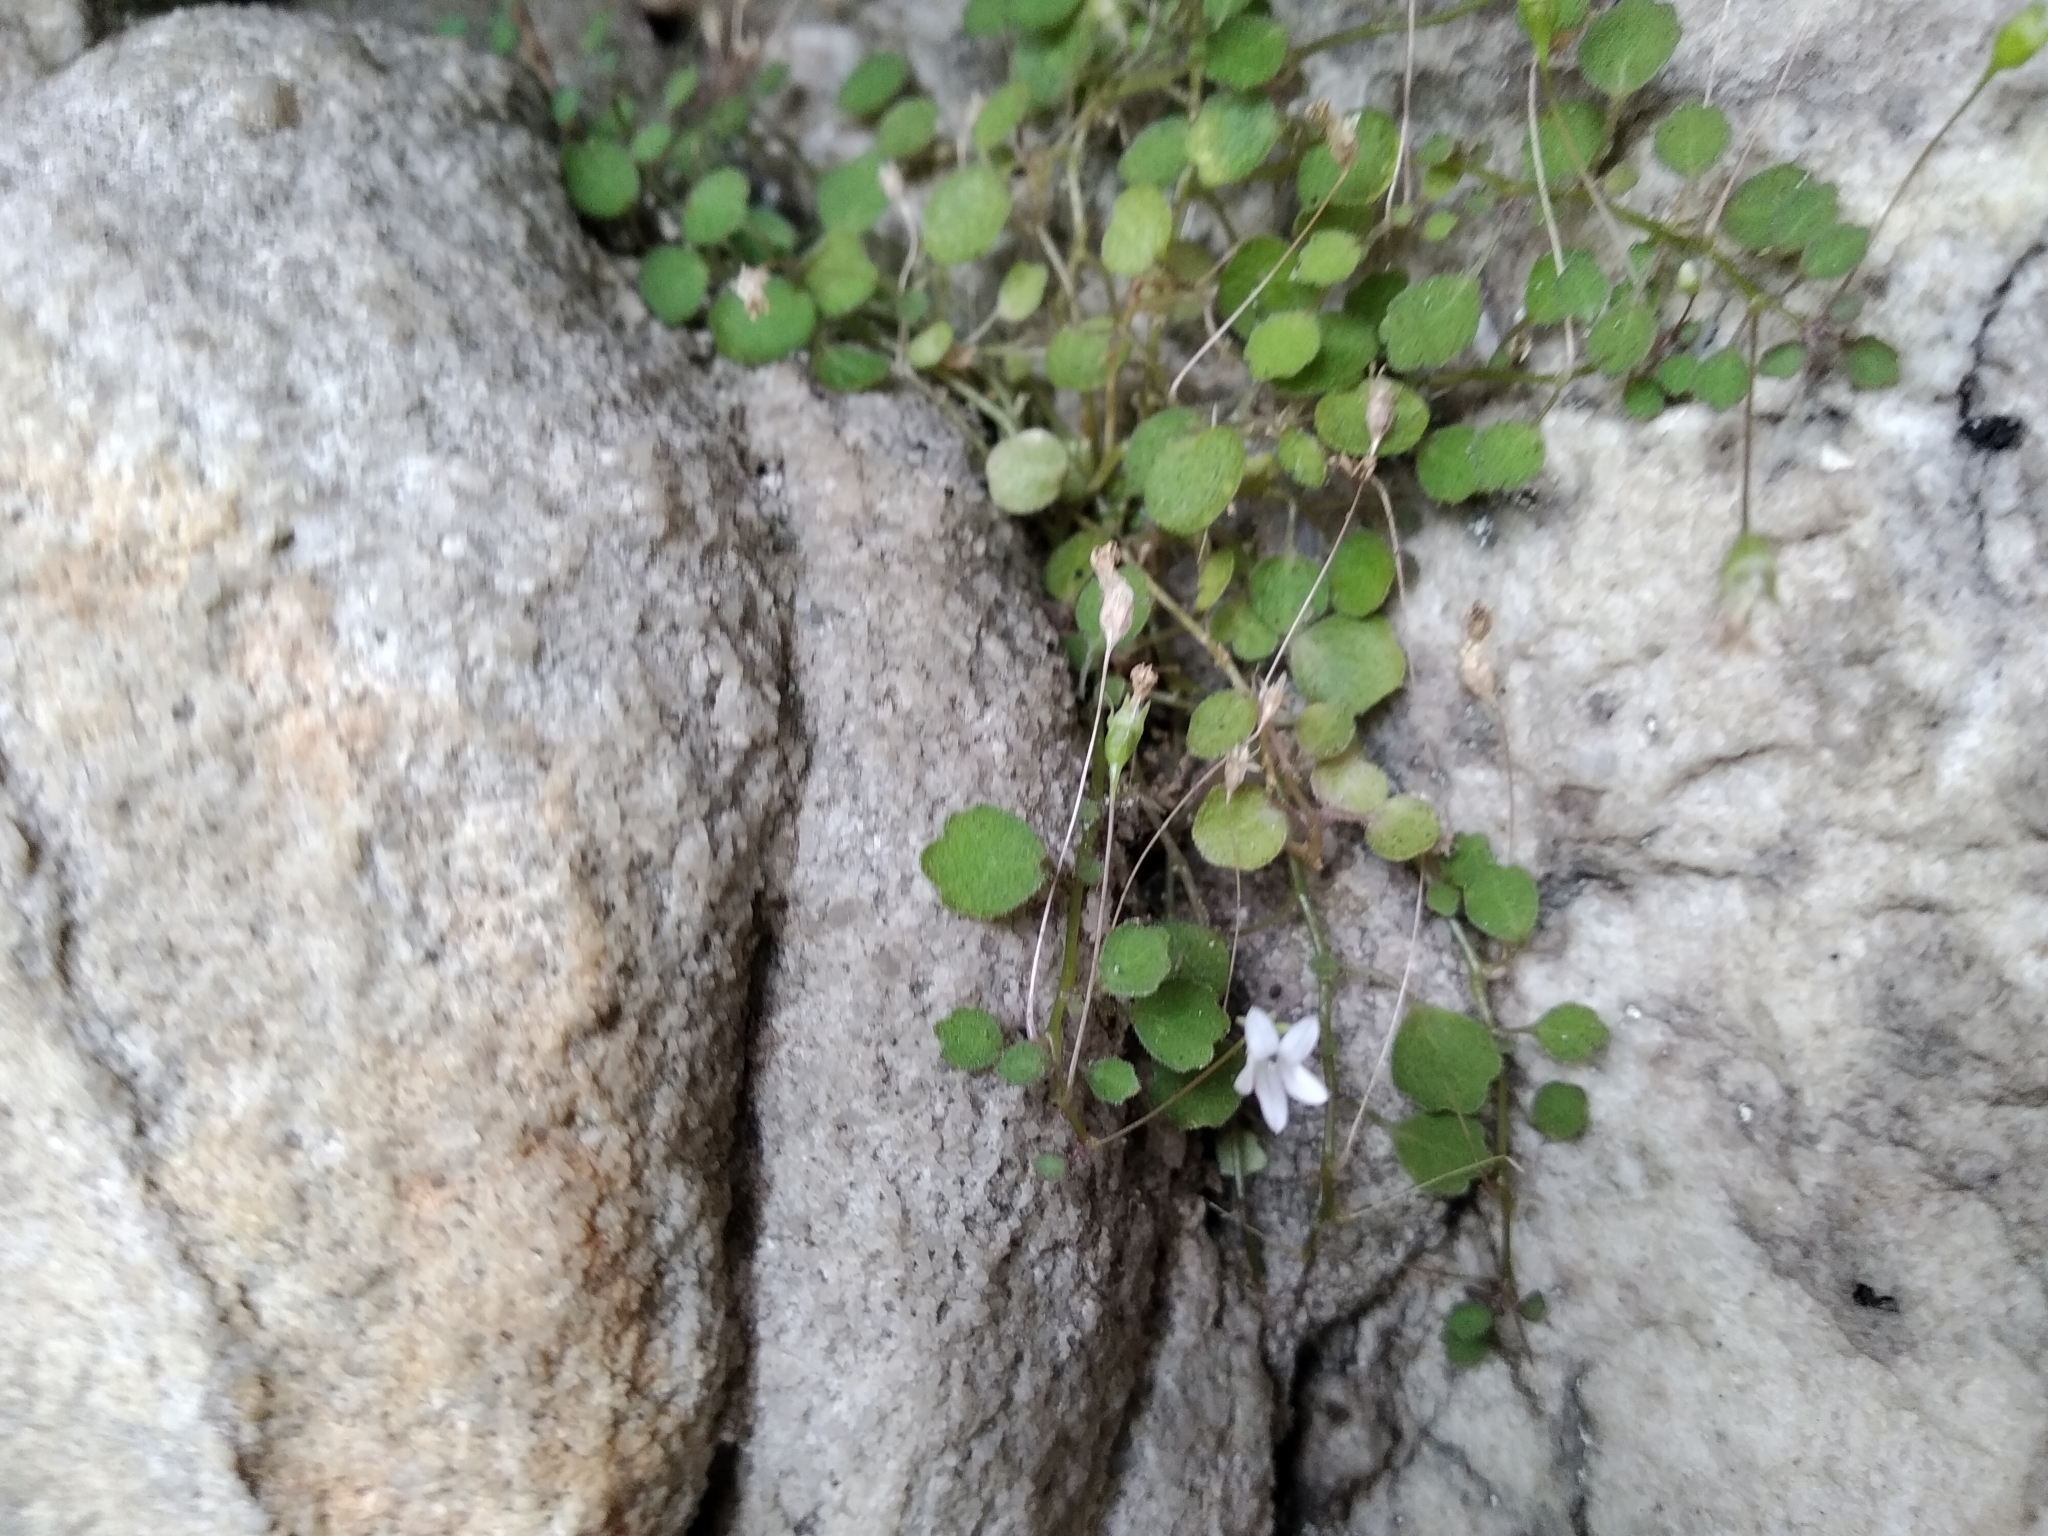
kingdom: Plantae
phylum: Tracheophyta
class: Magnoliopsida
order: Asterales
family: Campanulaceae
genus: Wimmerella
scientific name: Wimmerella pygmaea
